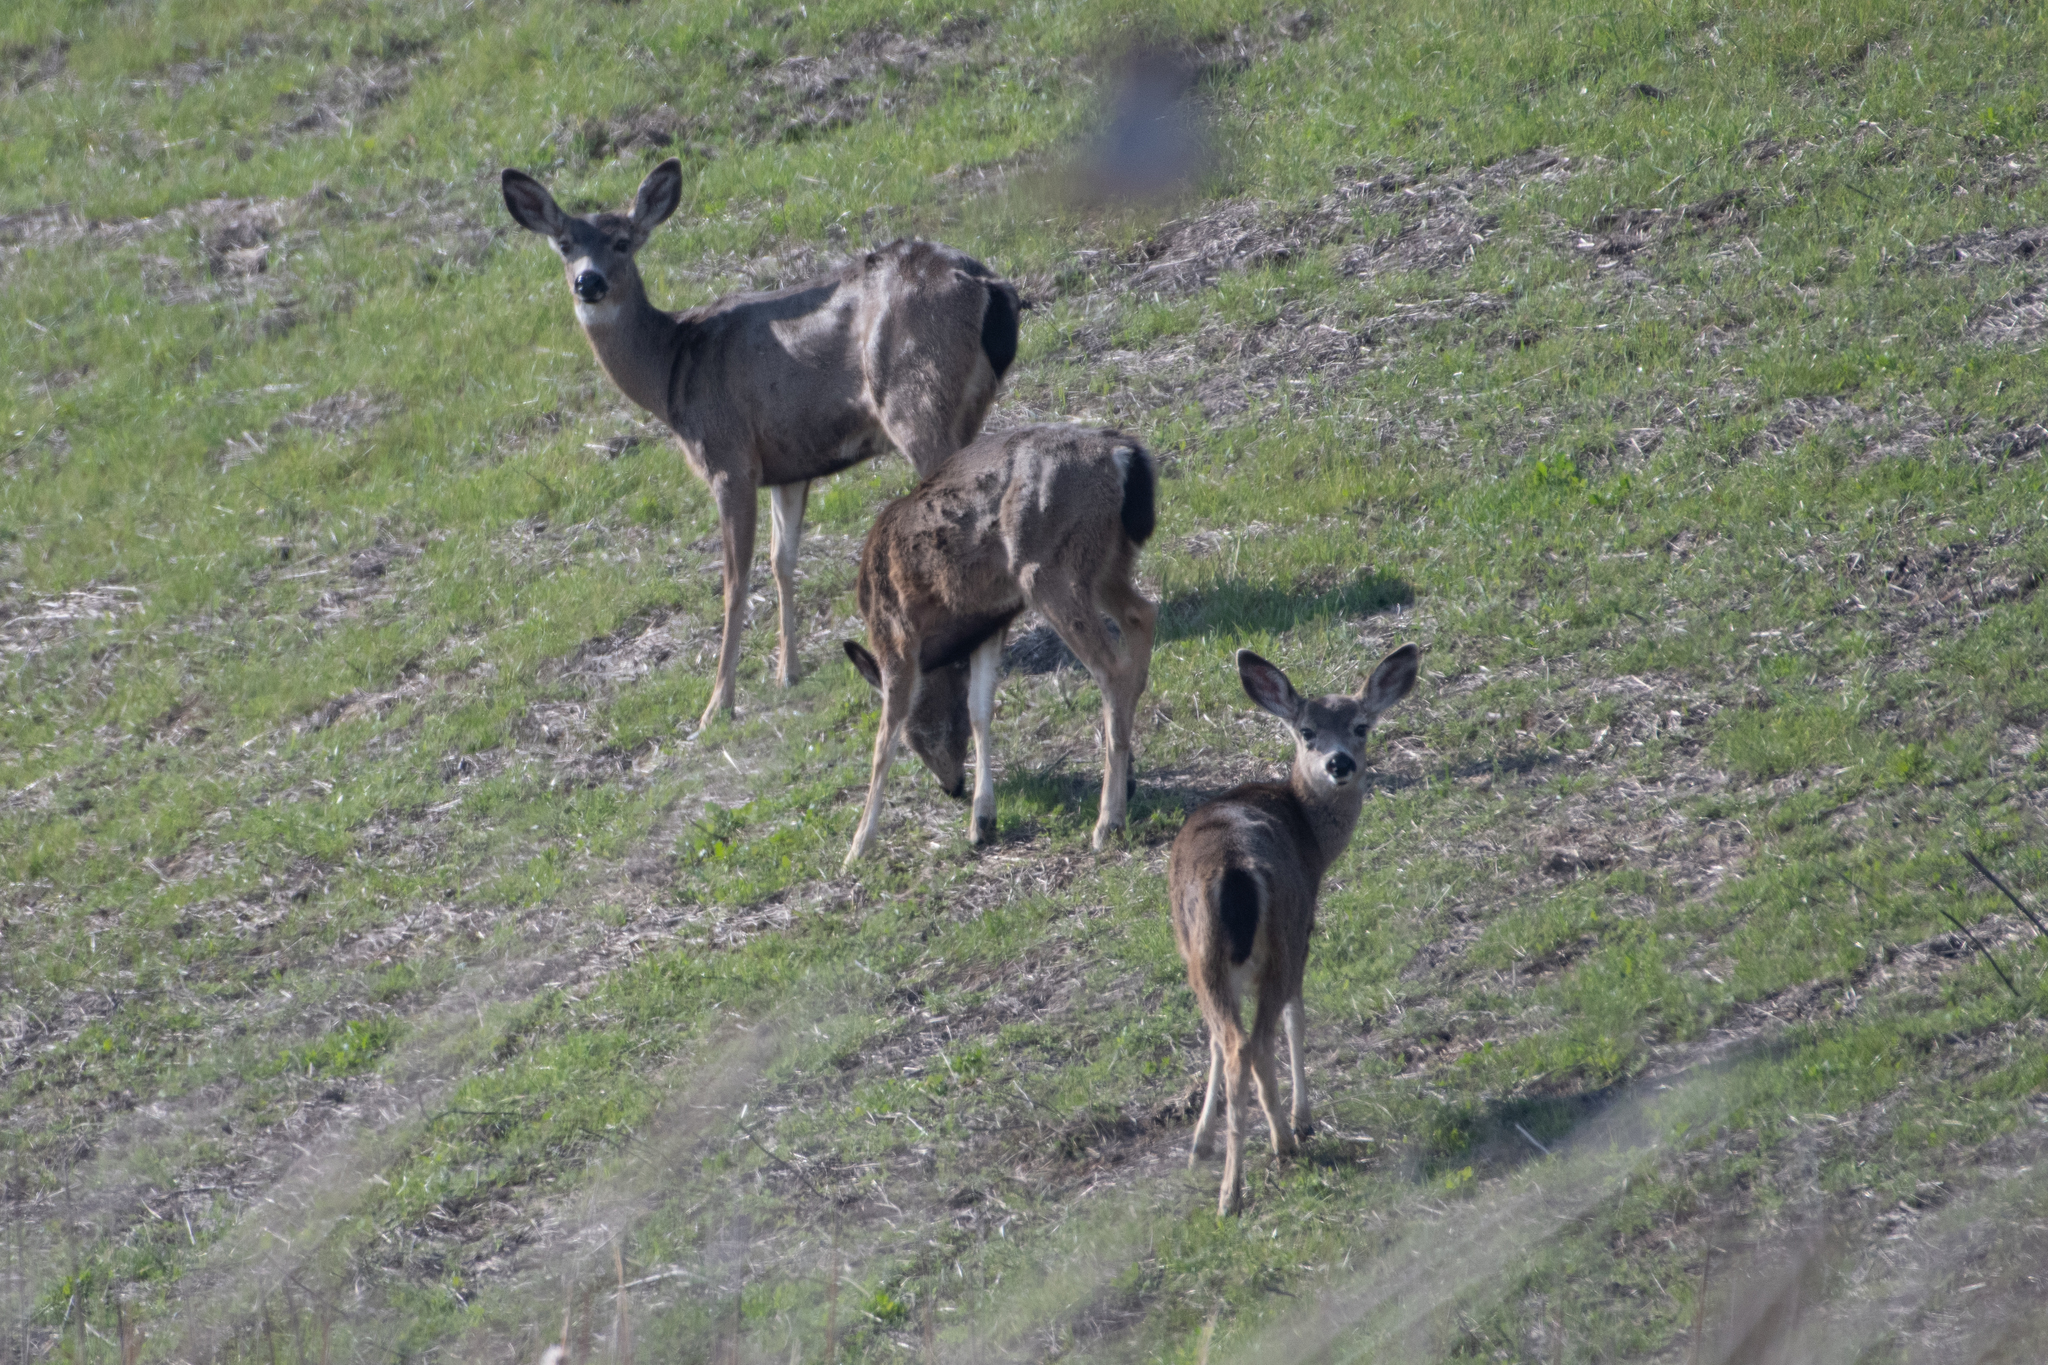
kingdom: Animalia
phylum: Chordata
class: Mammalia
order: Artiodactyla
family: Cervidae
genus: Odocoileus
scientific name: Odocoileus hemionus
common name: Mule deer
